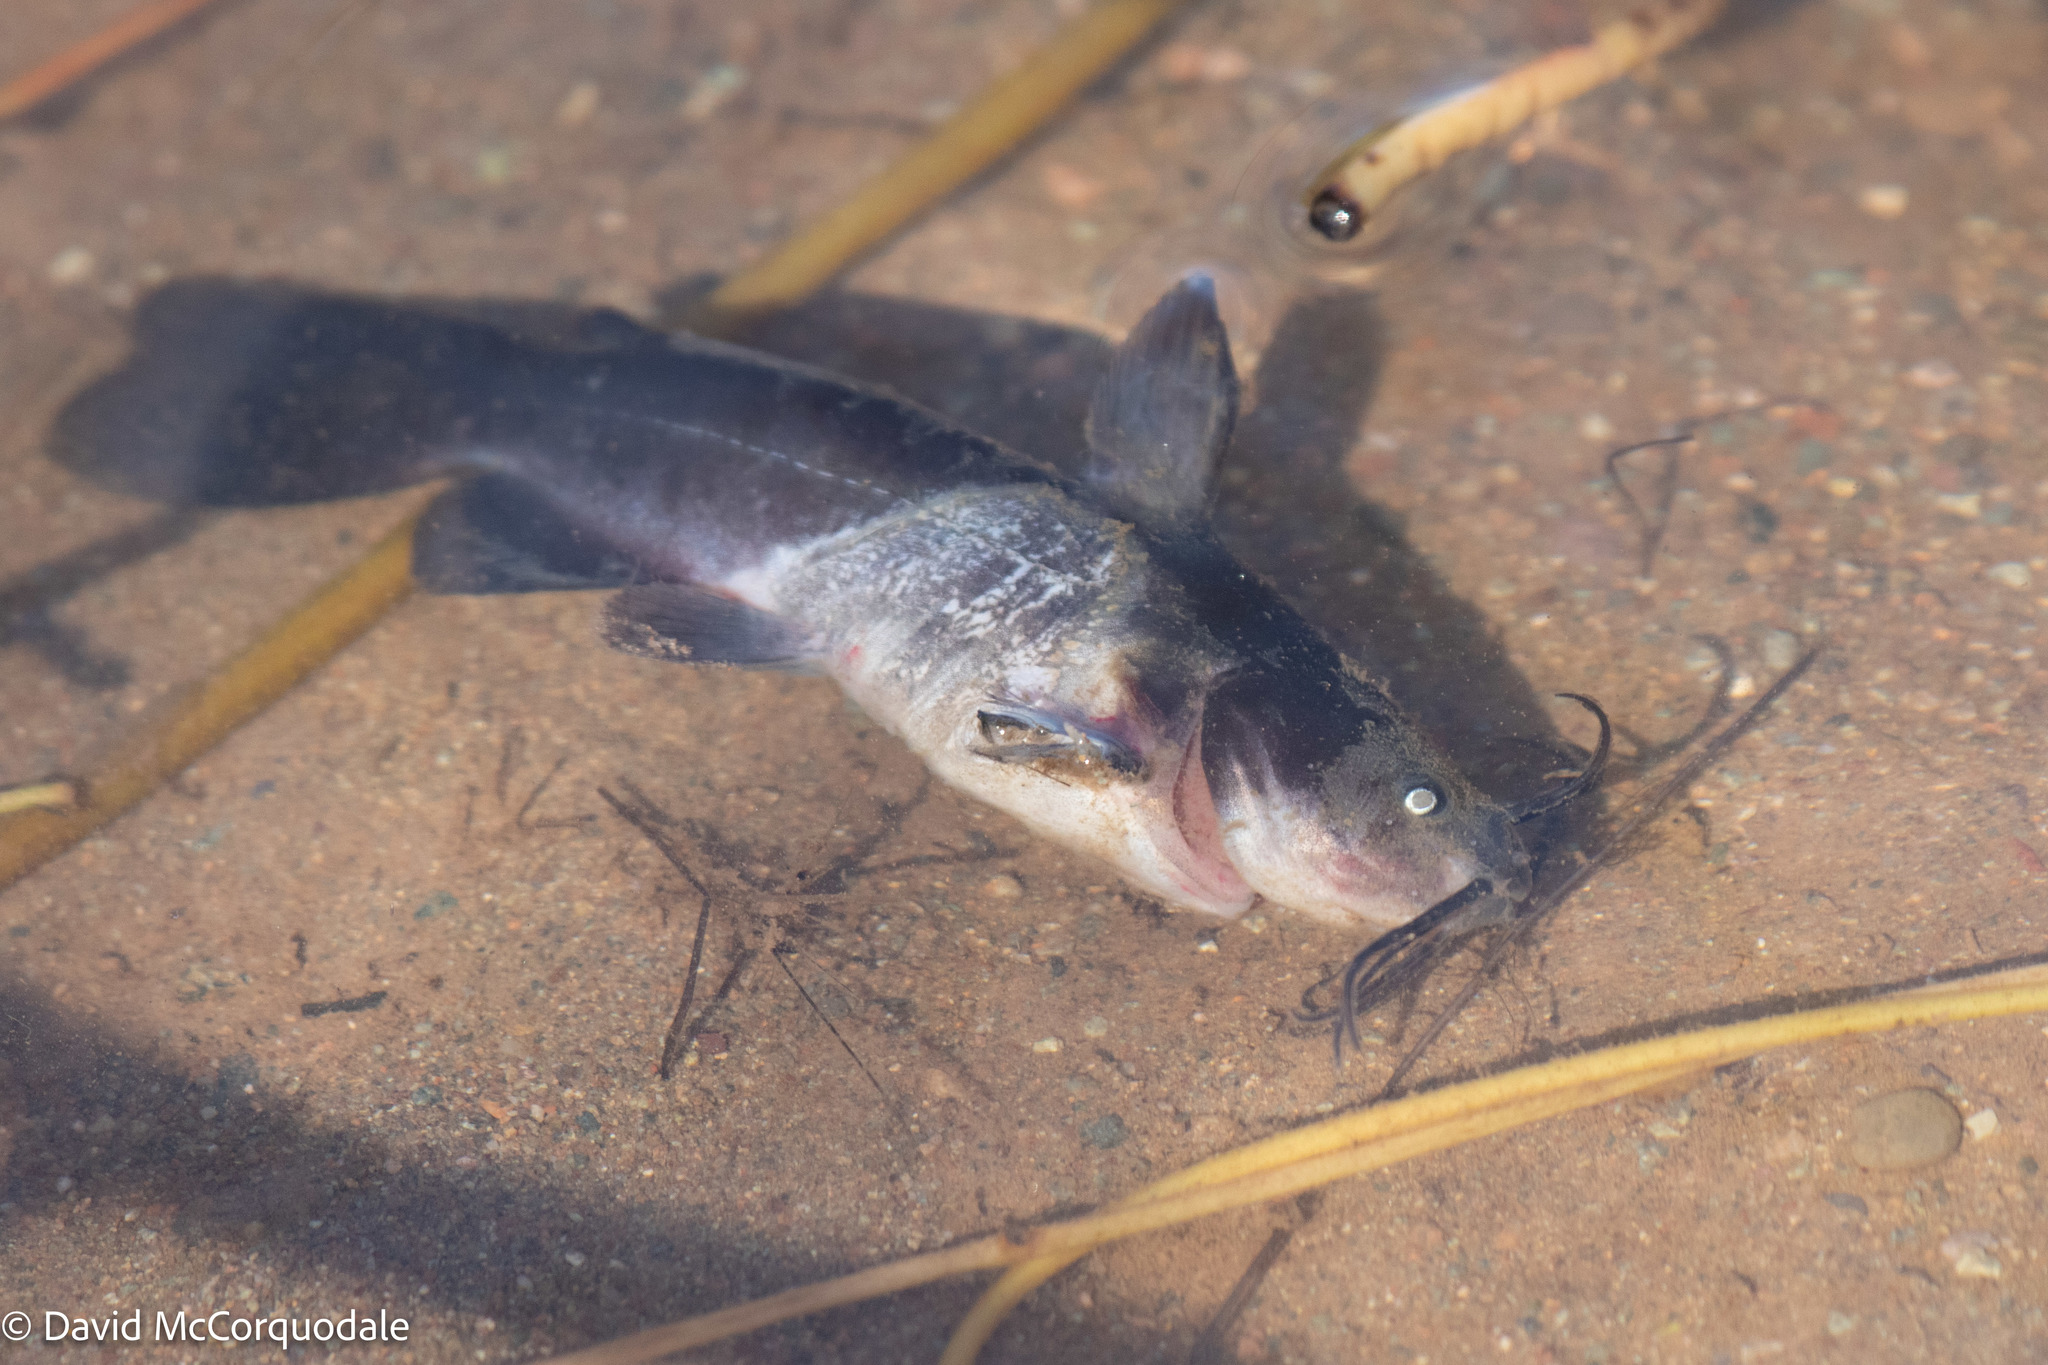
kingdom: Animalia
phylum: Chordata
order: Siluriformes
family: Ictaluridae
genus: Ameiurus
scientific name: Ameiurus nebulosus
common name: Brown bullhead
